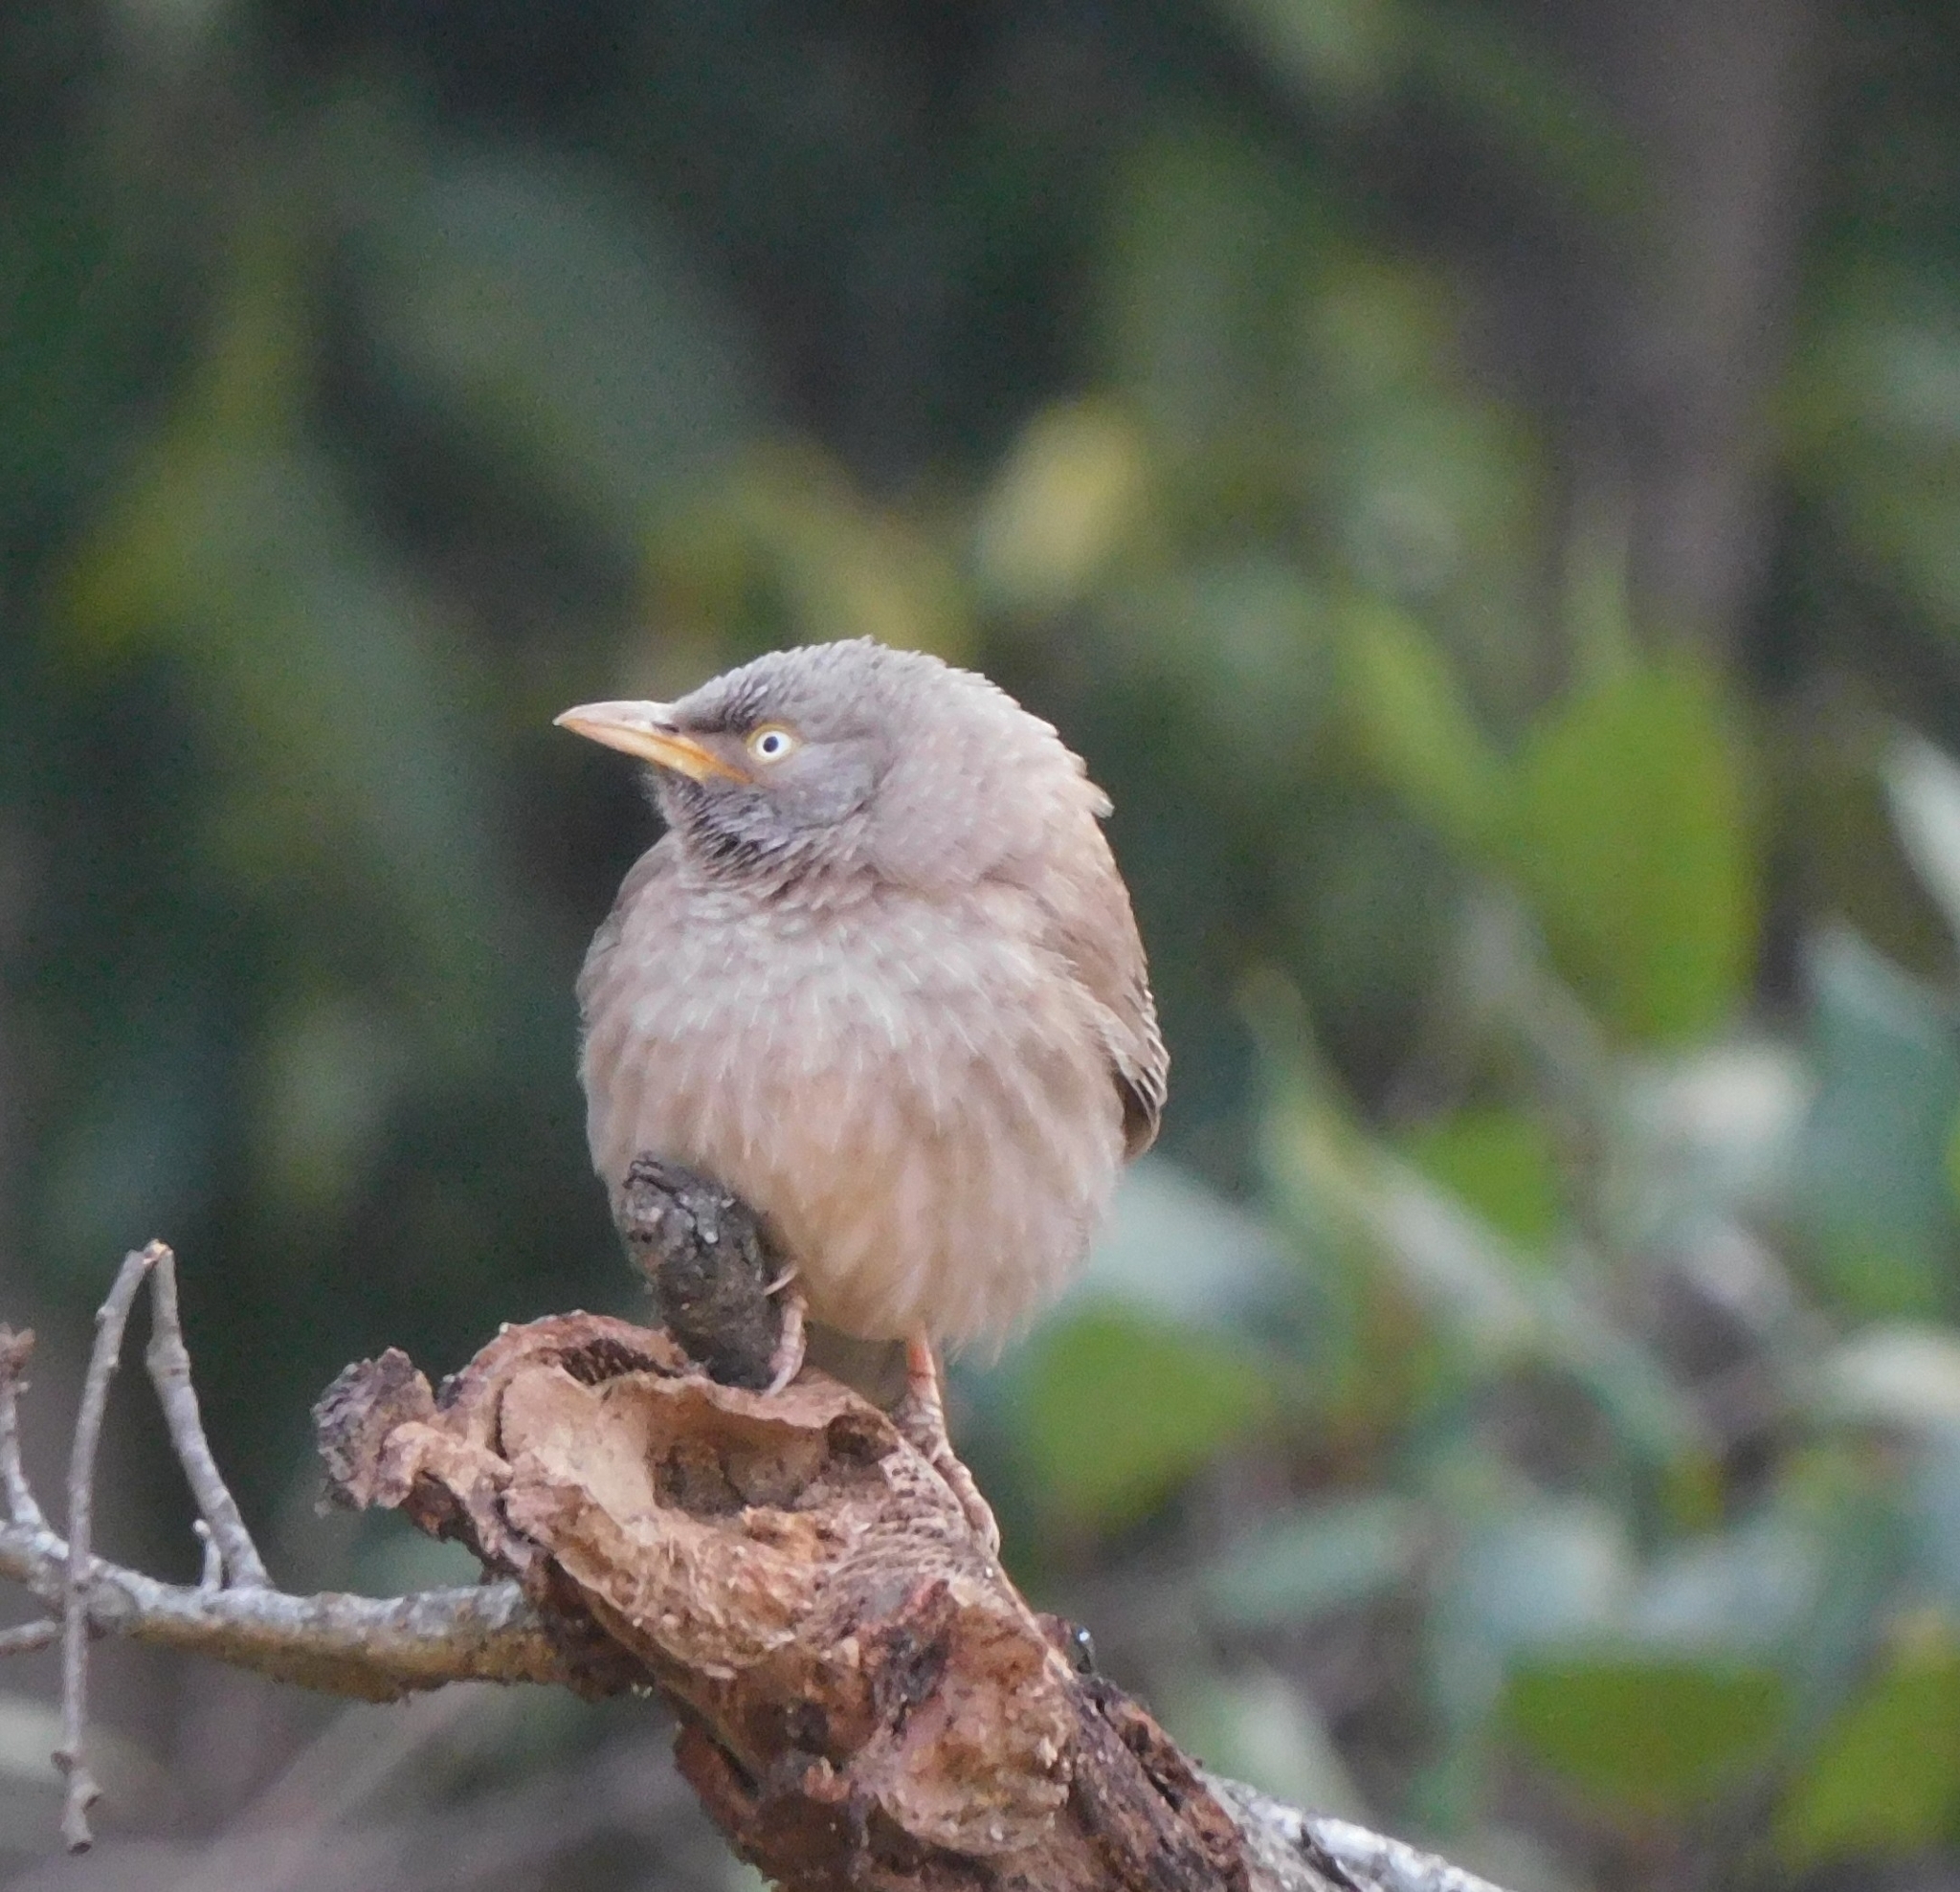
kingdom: Animalia
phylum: Chordata
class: Aves
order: Passeriformes
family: Leiothrichidae
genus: Turdoides
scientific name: Turdoides striata
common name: Jungle babbler
